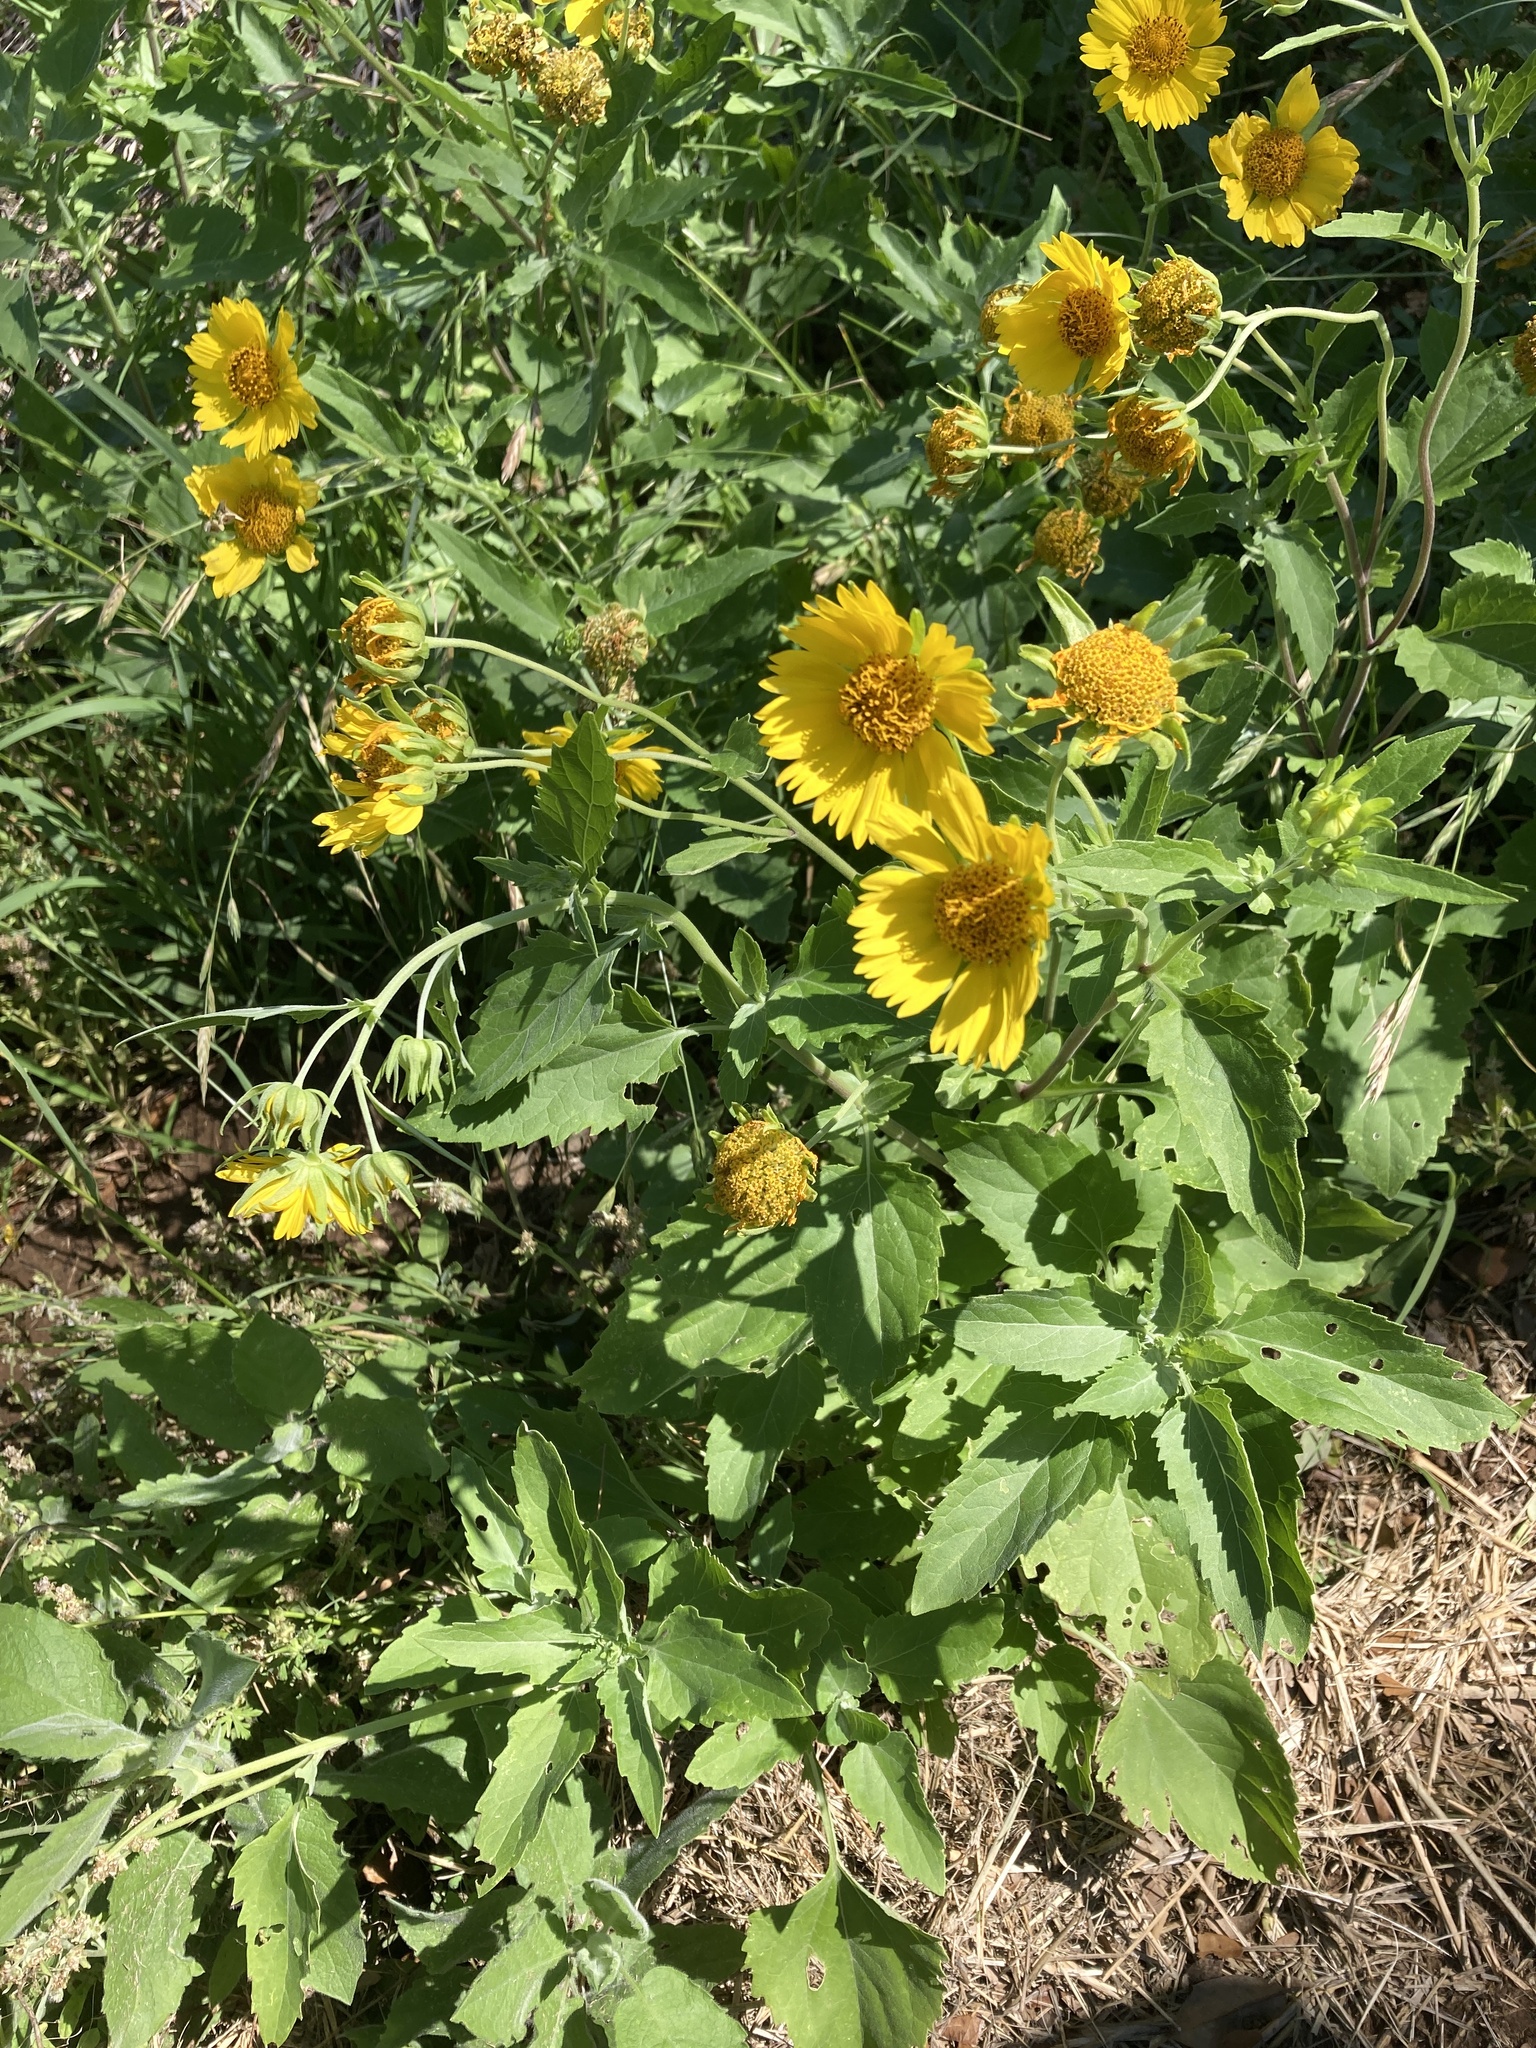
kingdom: Plantae
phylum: Tracheophyta
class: Magnoliopsida
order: Asterales
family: Asteraceae
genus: Verbesina
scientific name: Verbesina encelioides
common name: Golden crownbeard
